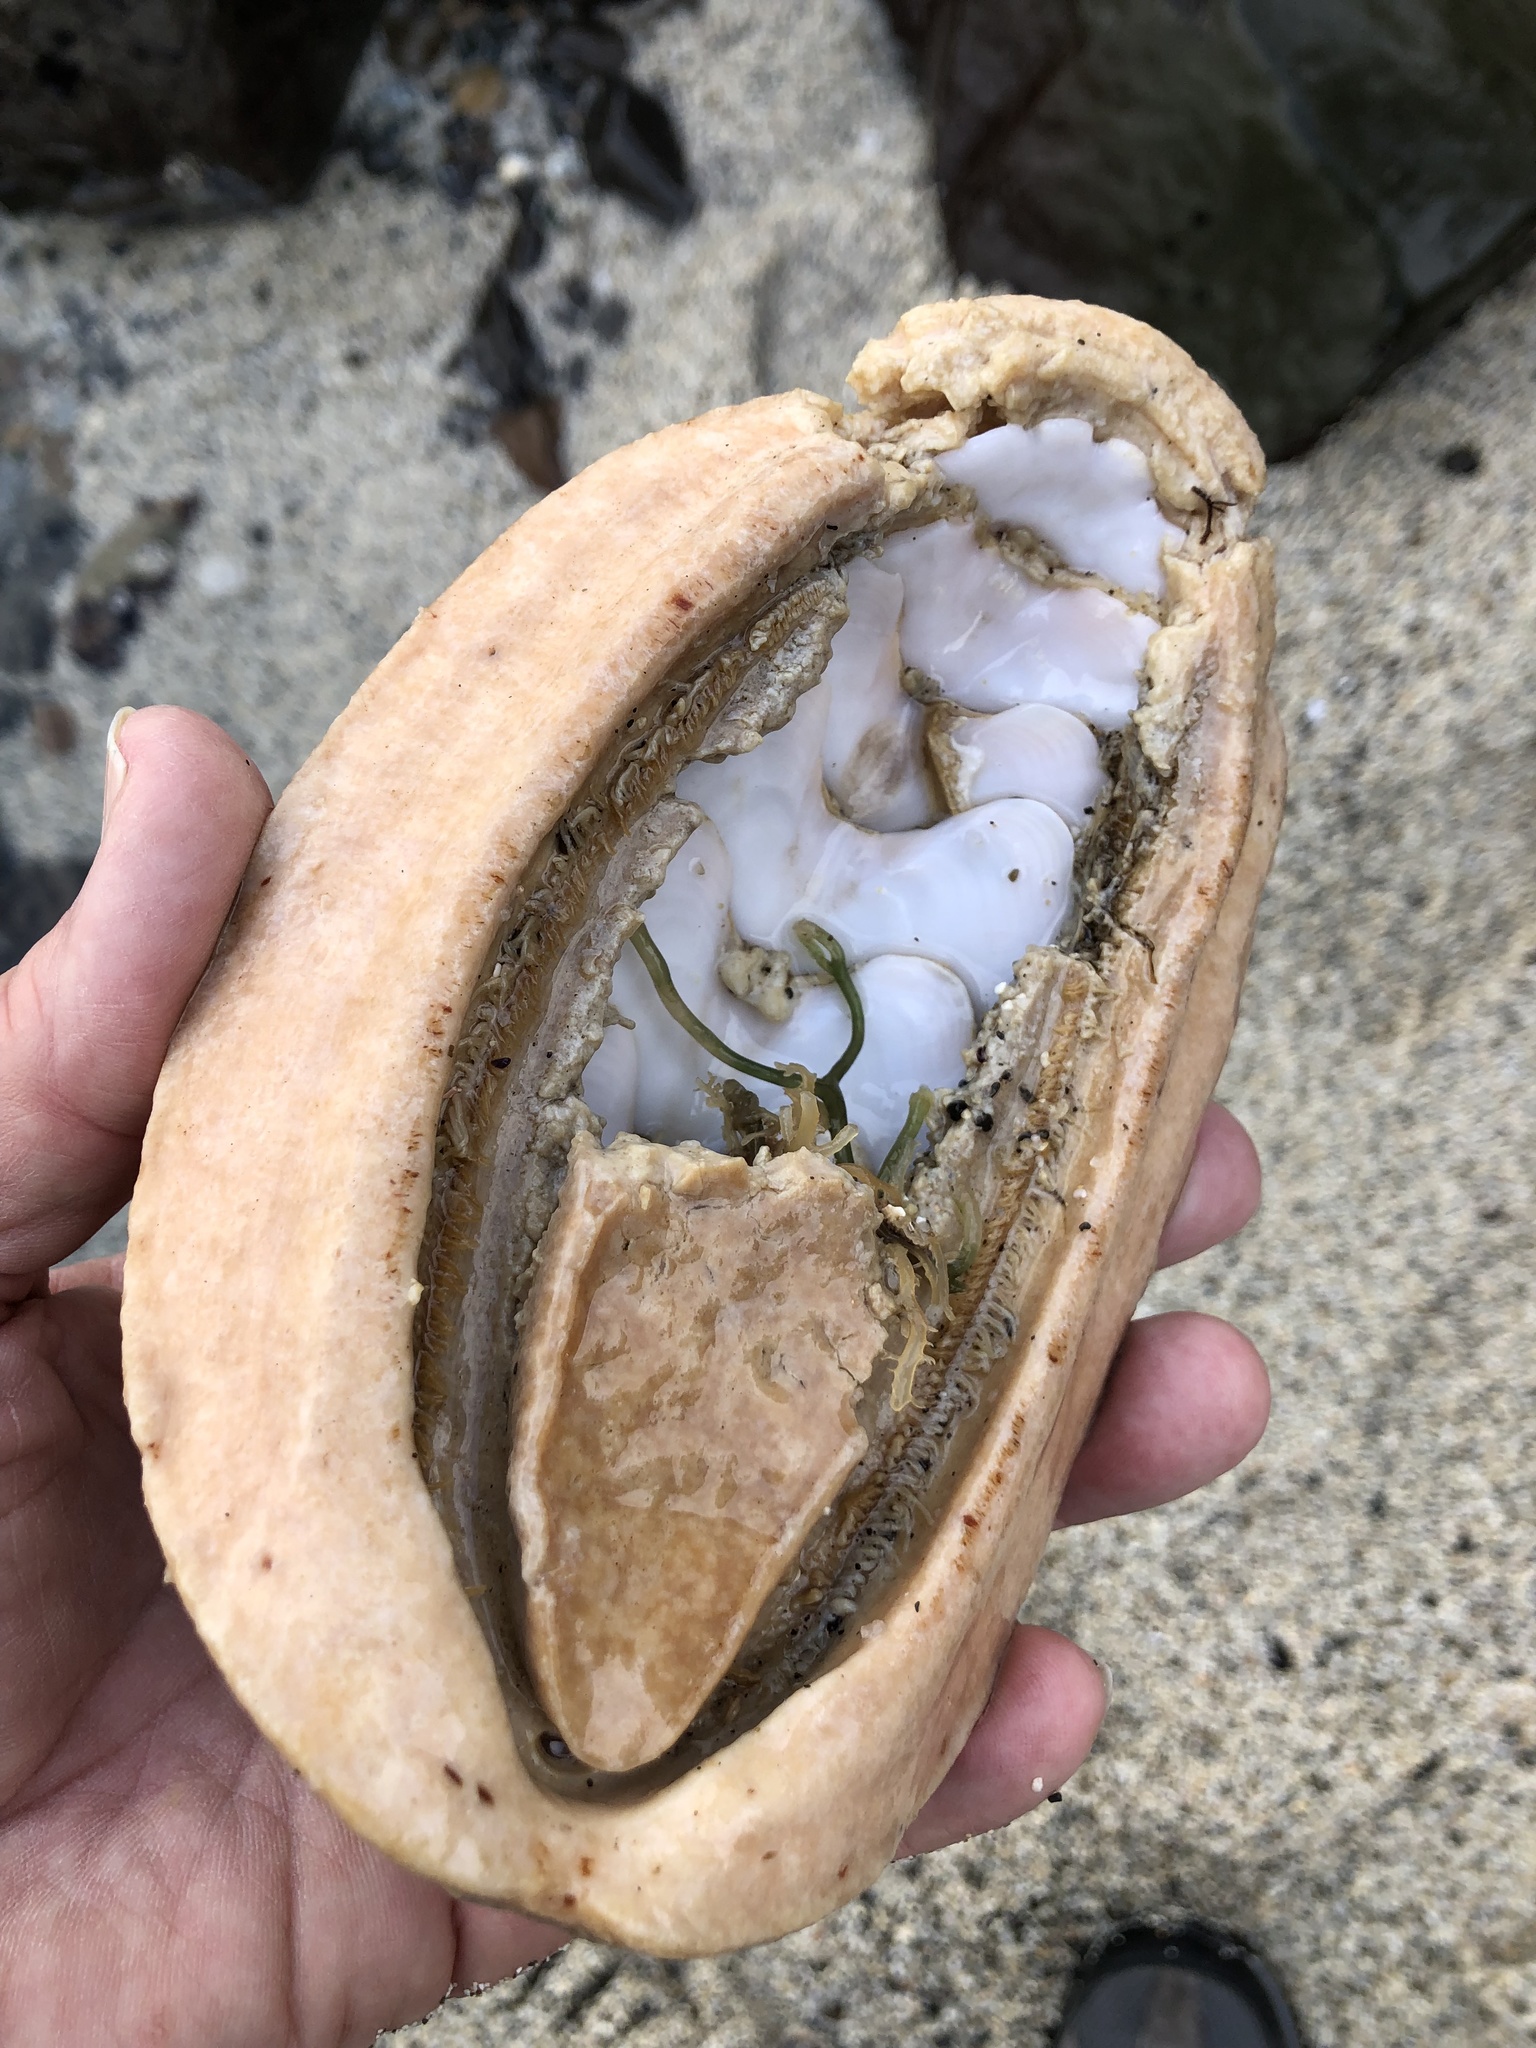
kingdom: Animalia
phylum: Mollusca
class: Polyplacophora
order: Chitonida
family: Acanthochitonidae
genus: Cryptochiton
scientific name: Cryptochiton stelleri
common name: Giant pacific chiton
